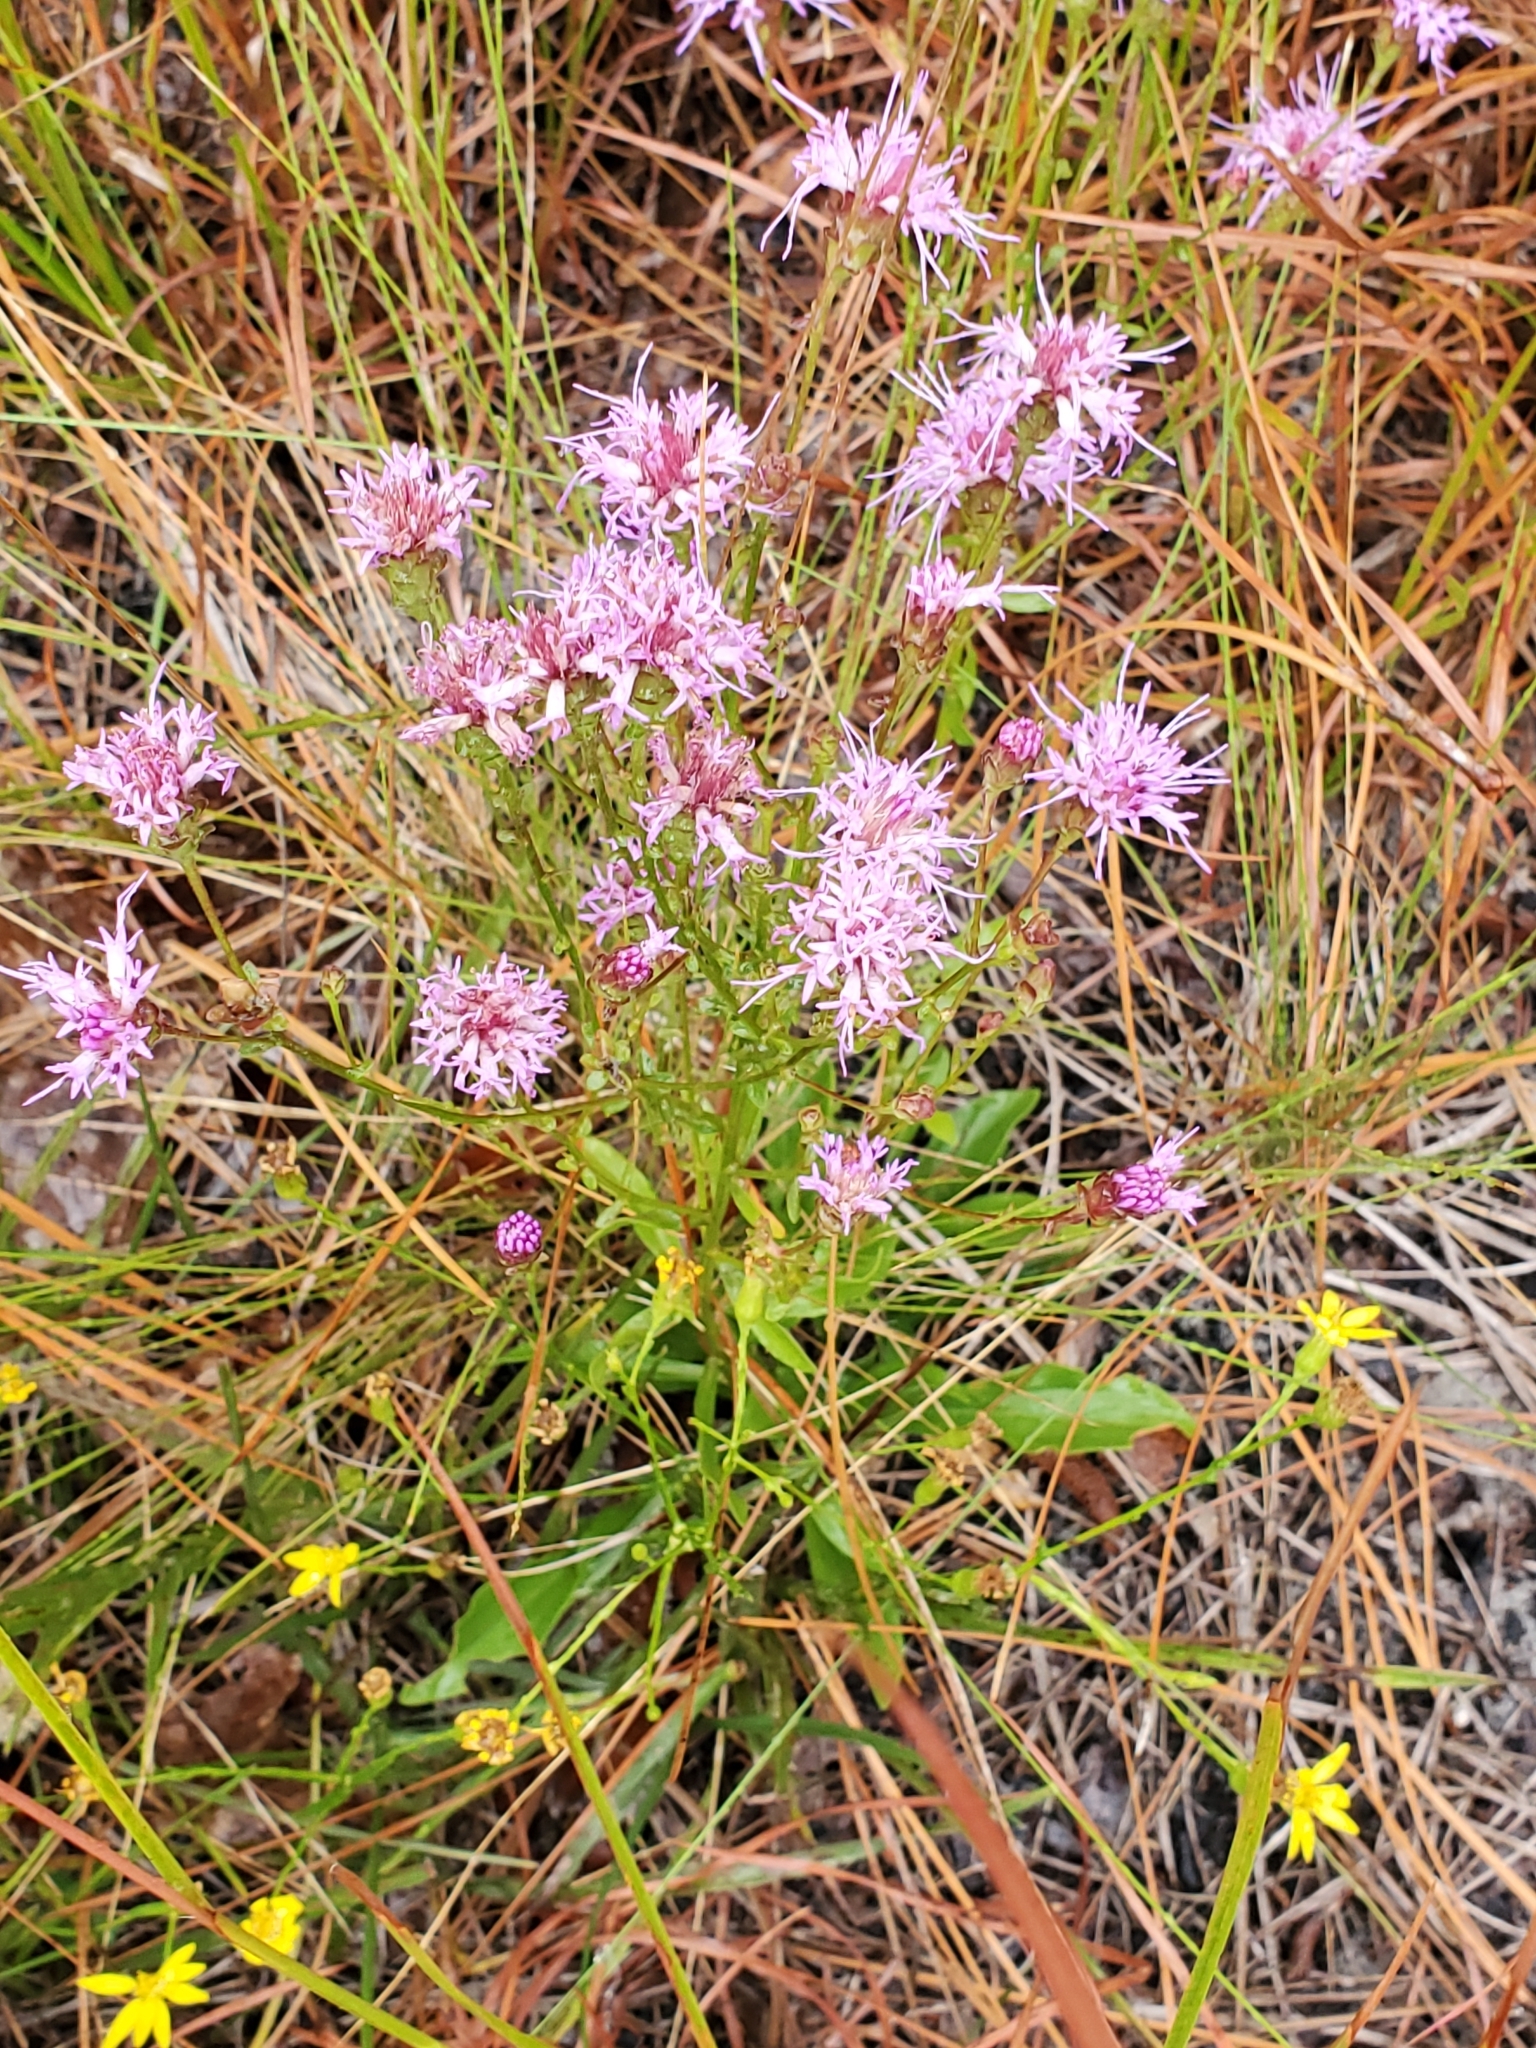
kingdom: Plantae
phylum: Tracheophyta
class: Magnoliopsida
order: Asterales
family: Asteraceae
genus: Carphephorus
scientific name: Carphephorus bellidifolius
